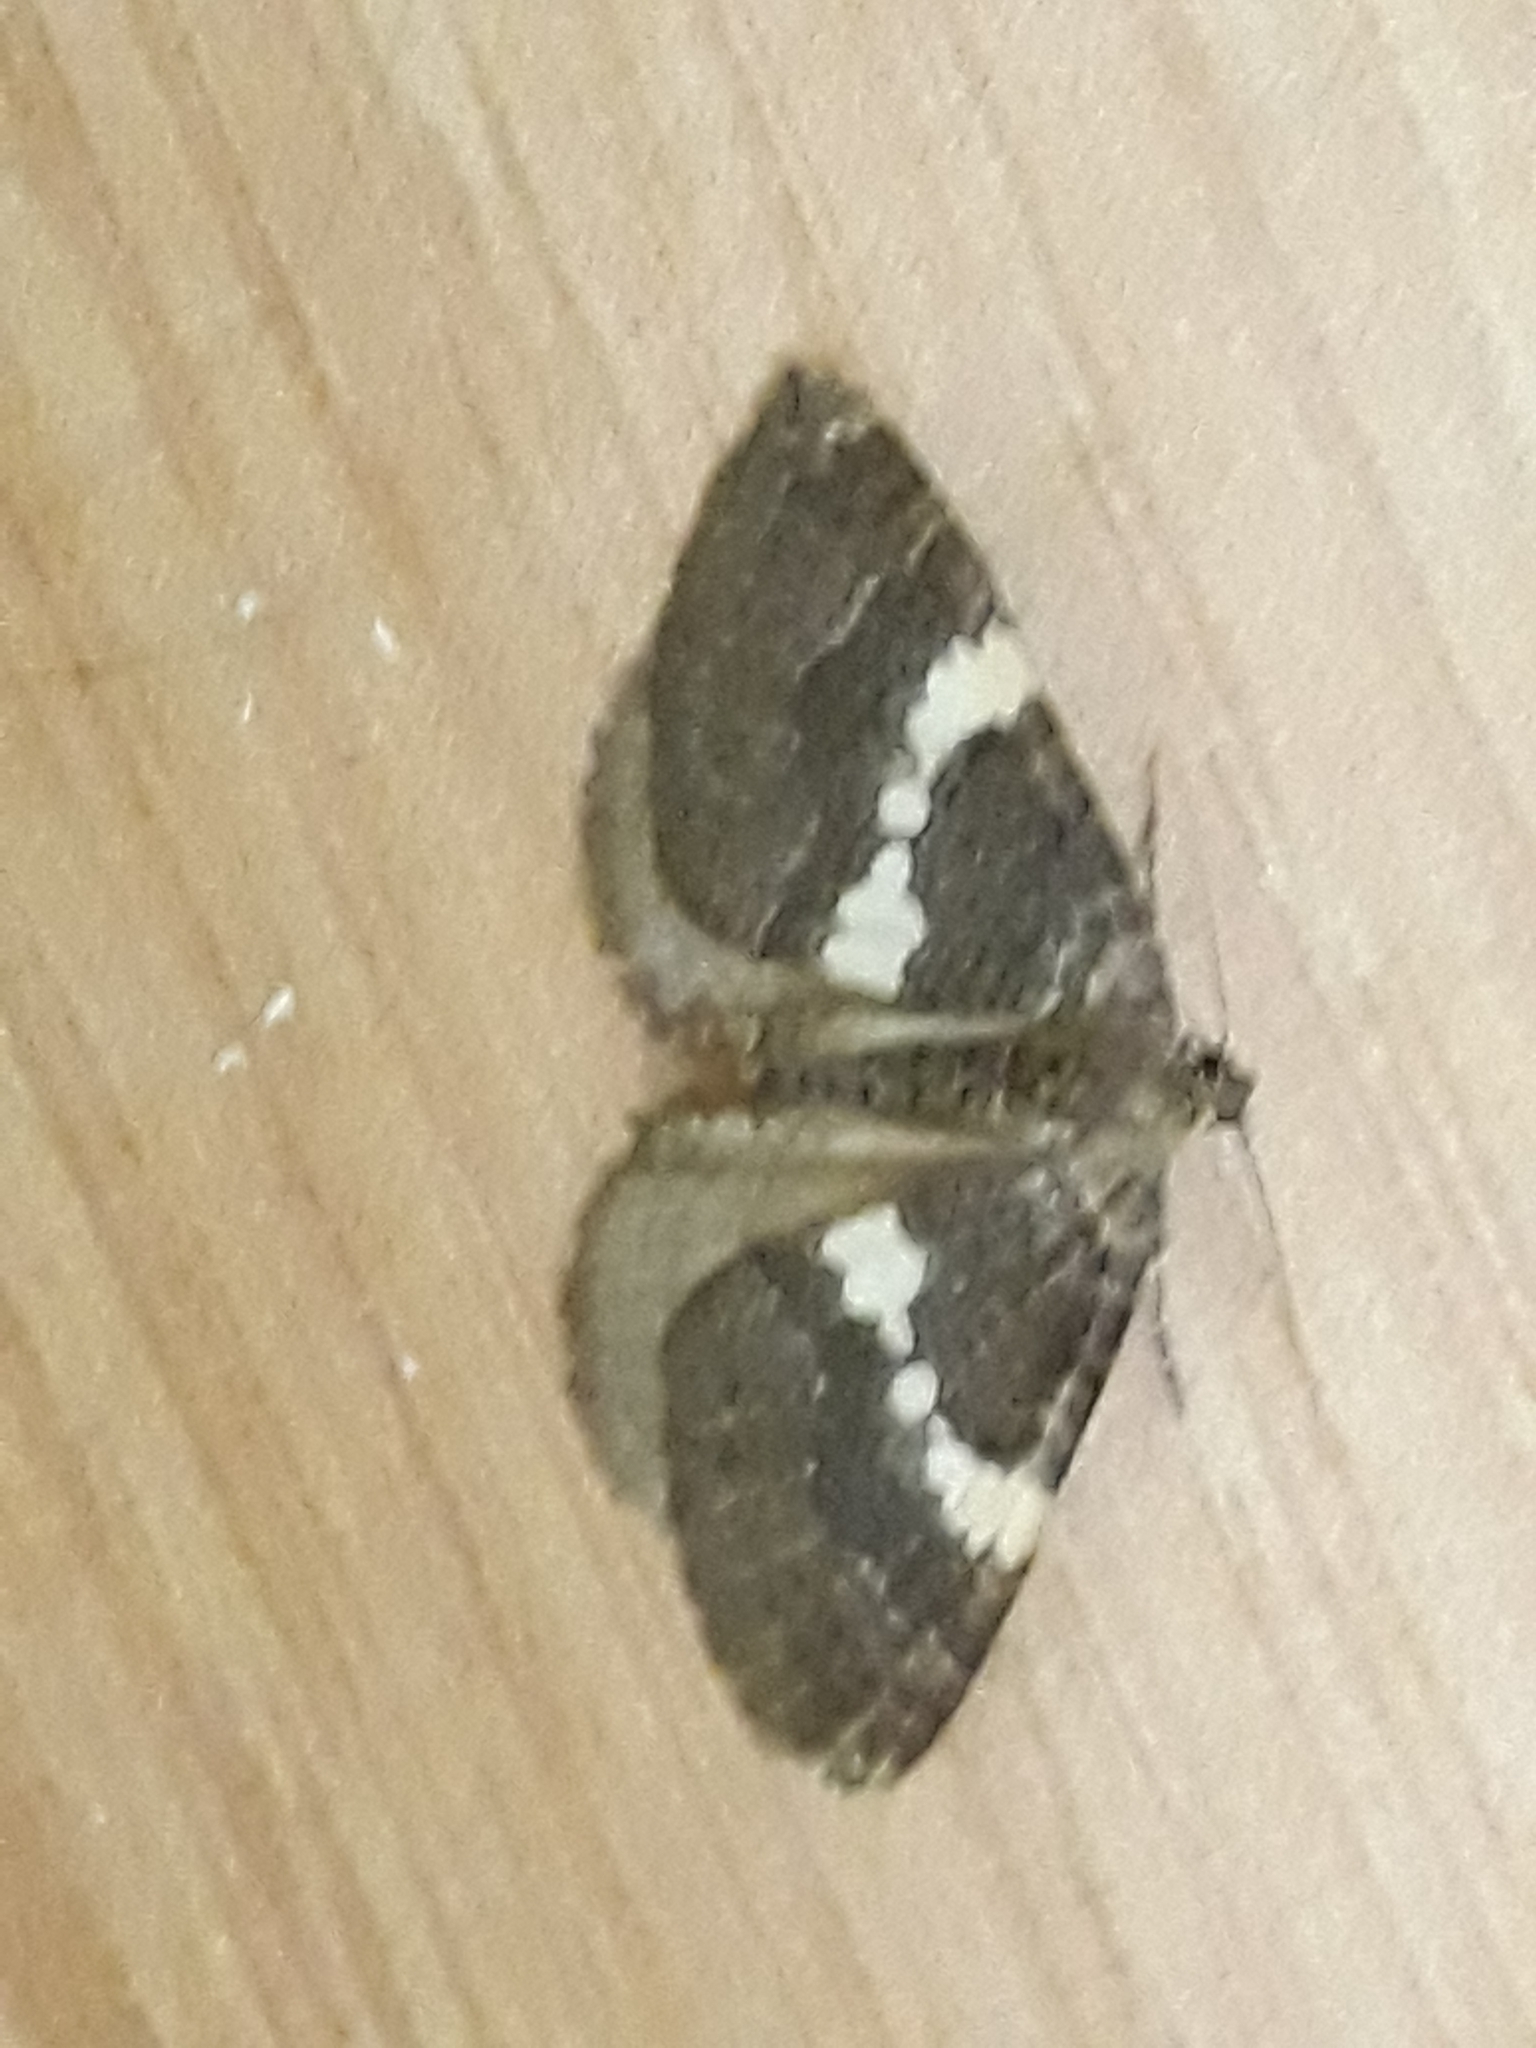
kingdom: Animalia
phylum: Arthropoda
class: Insecta
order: Lepidoptera
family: Geometridae
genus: Nebula
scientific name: Nebula malvata
